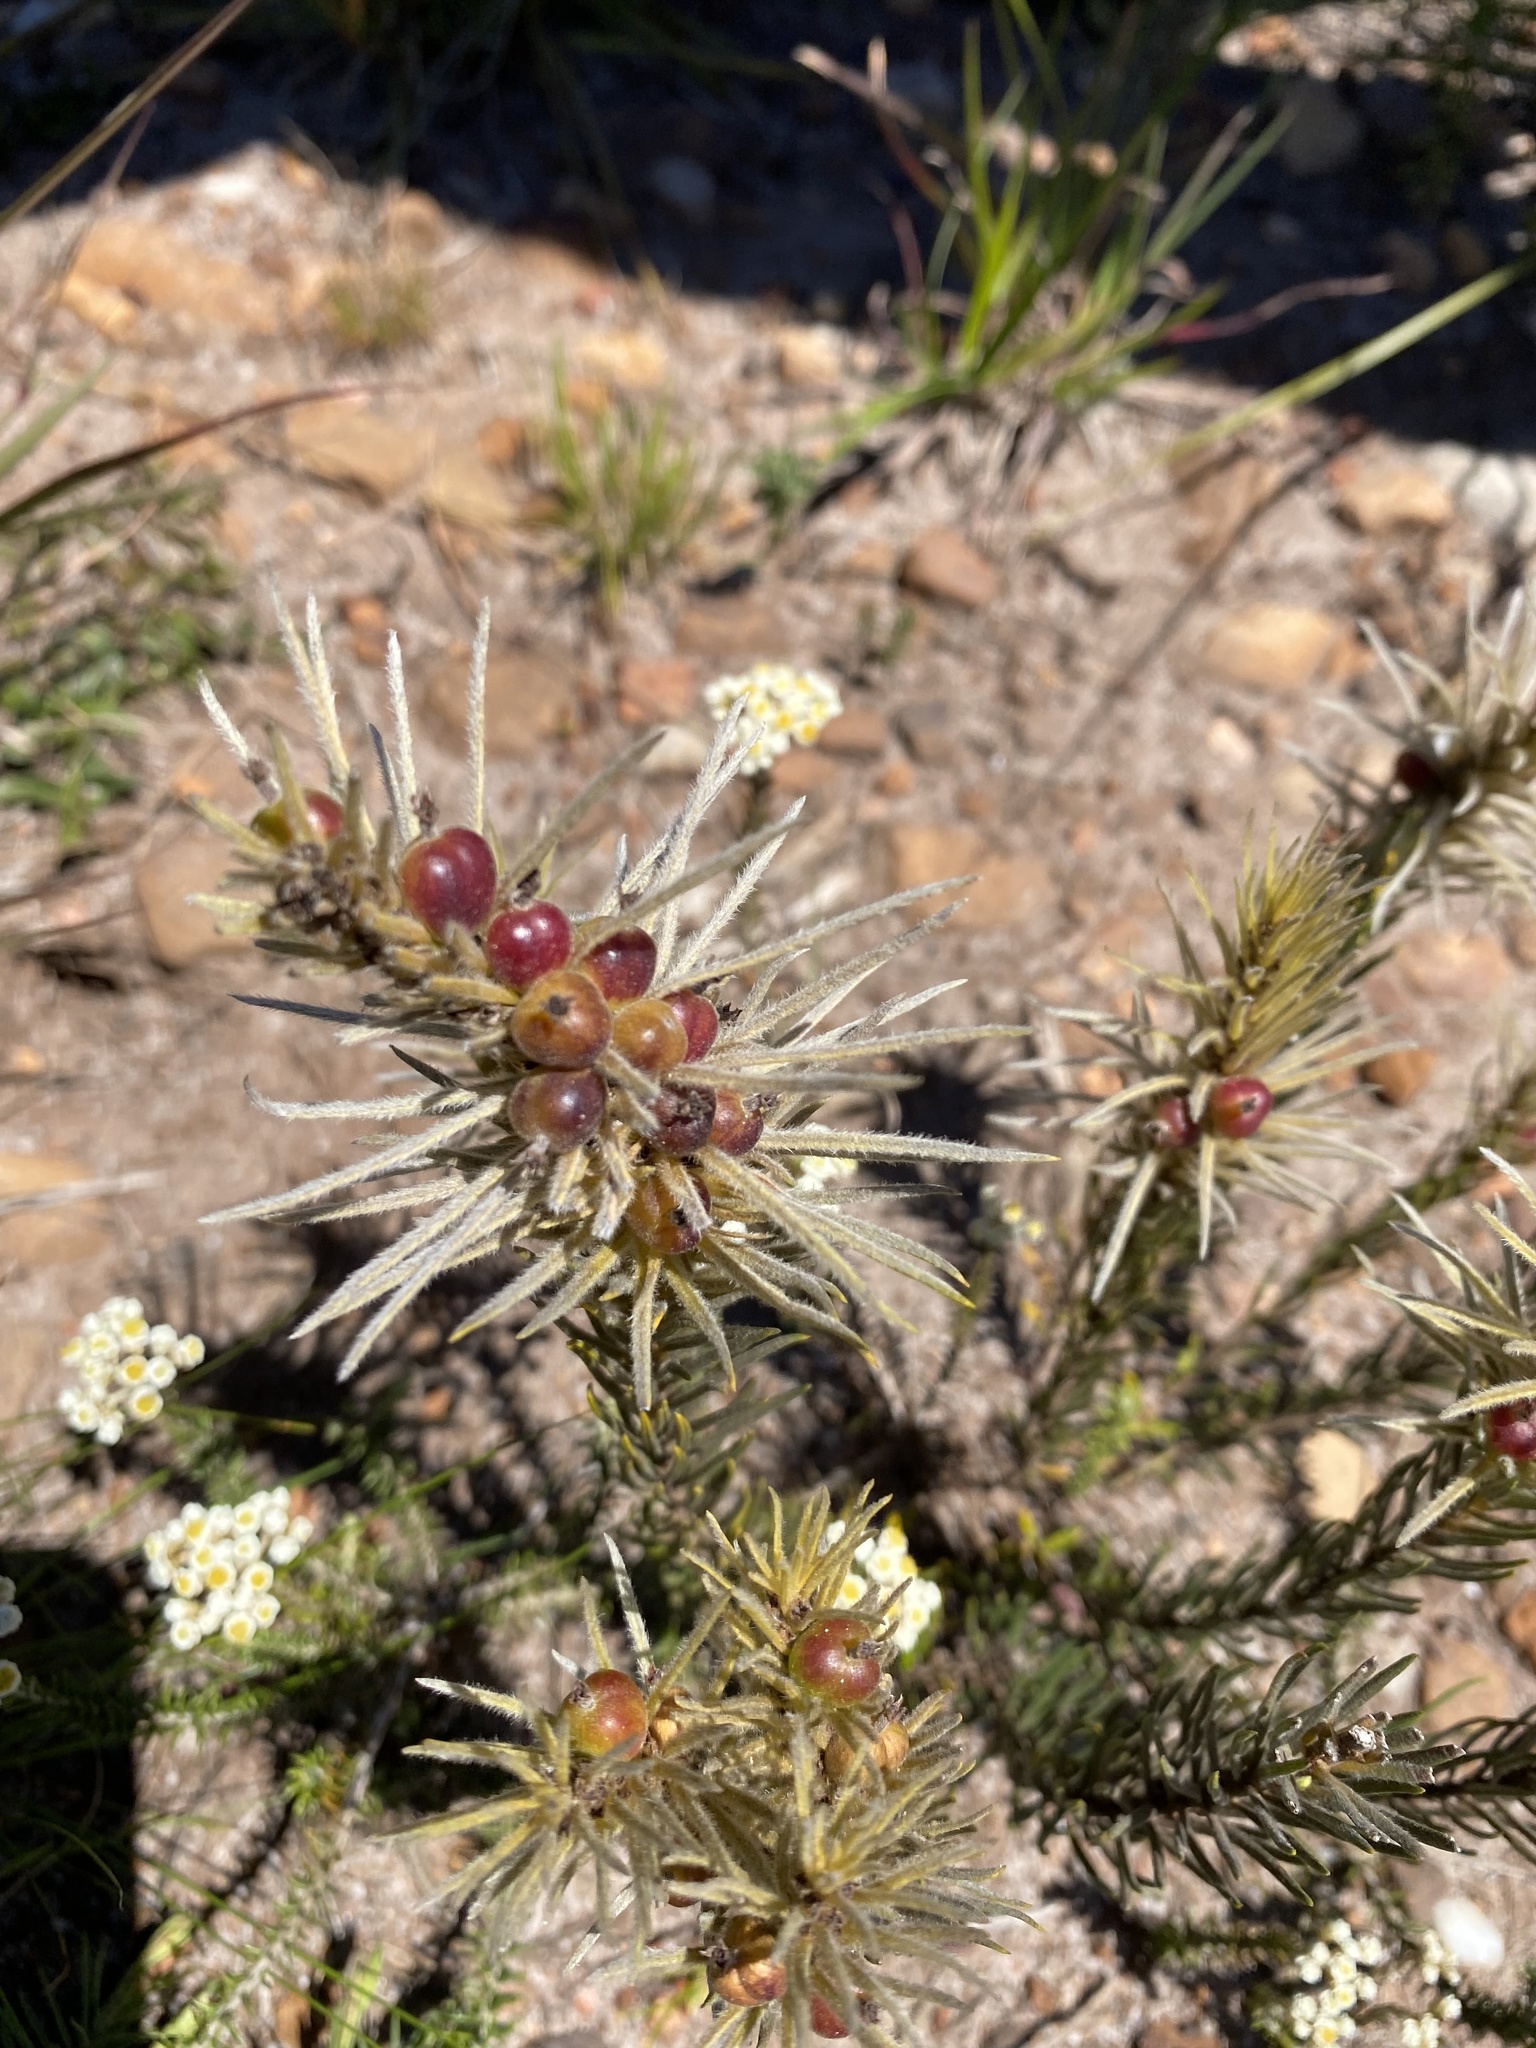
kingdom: Plantae
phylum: Tracheophyta
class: Magnoliopsida
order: Rosales
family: Rhamnaceae
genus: Phylica
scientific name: Phylica velutina
